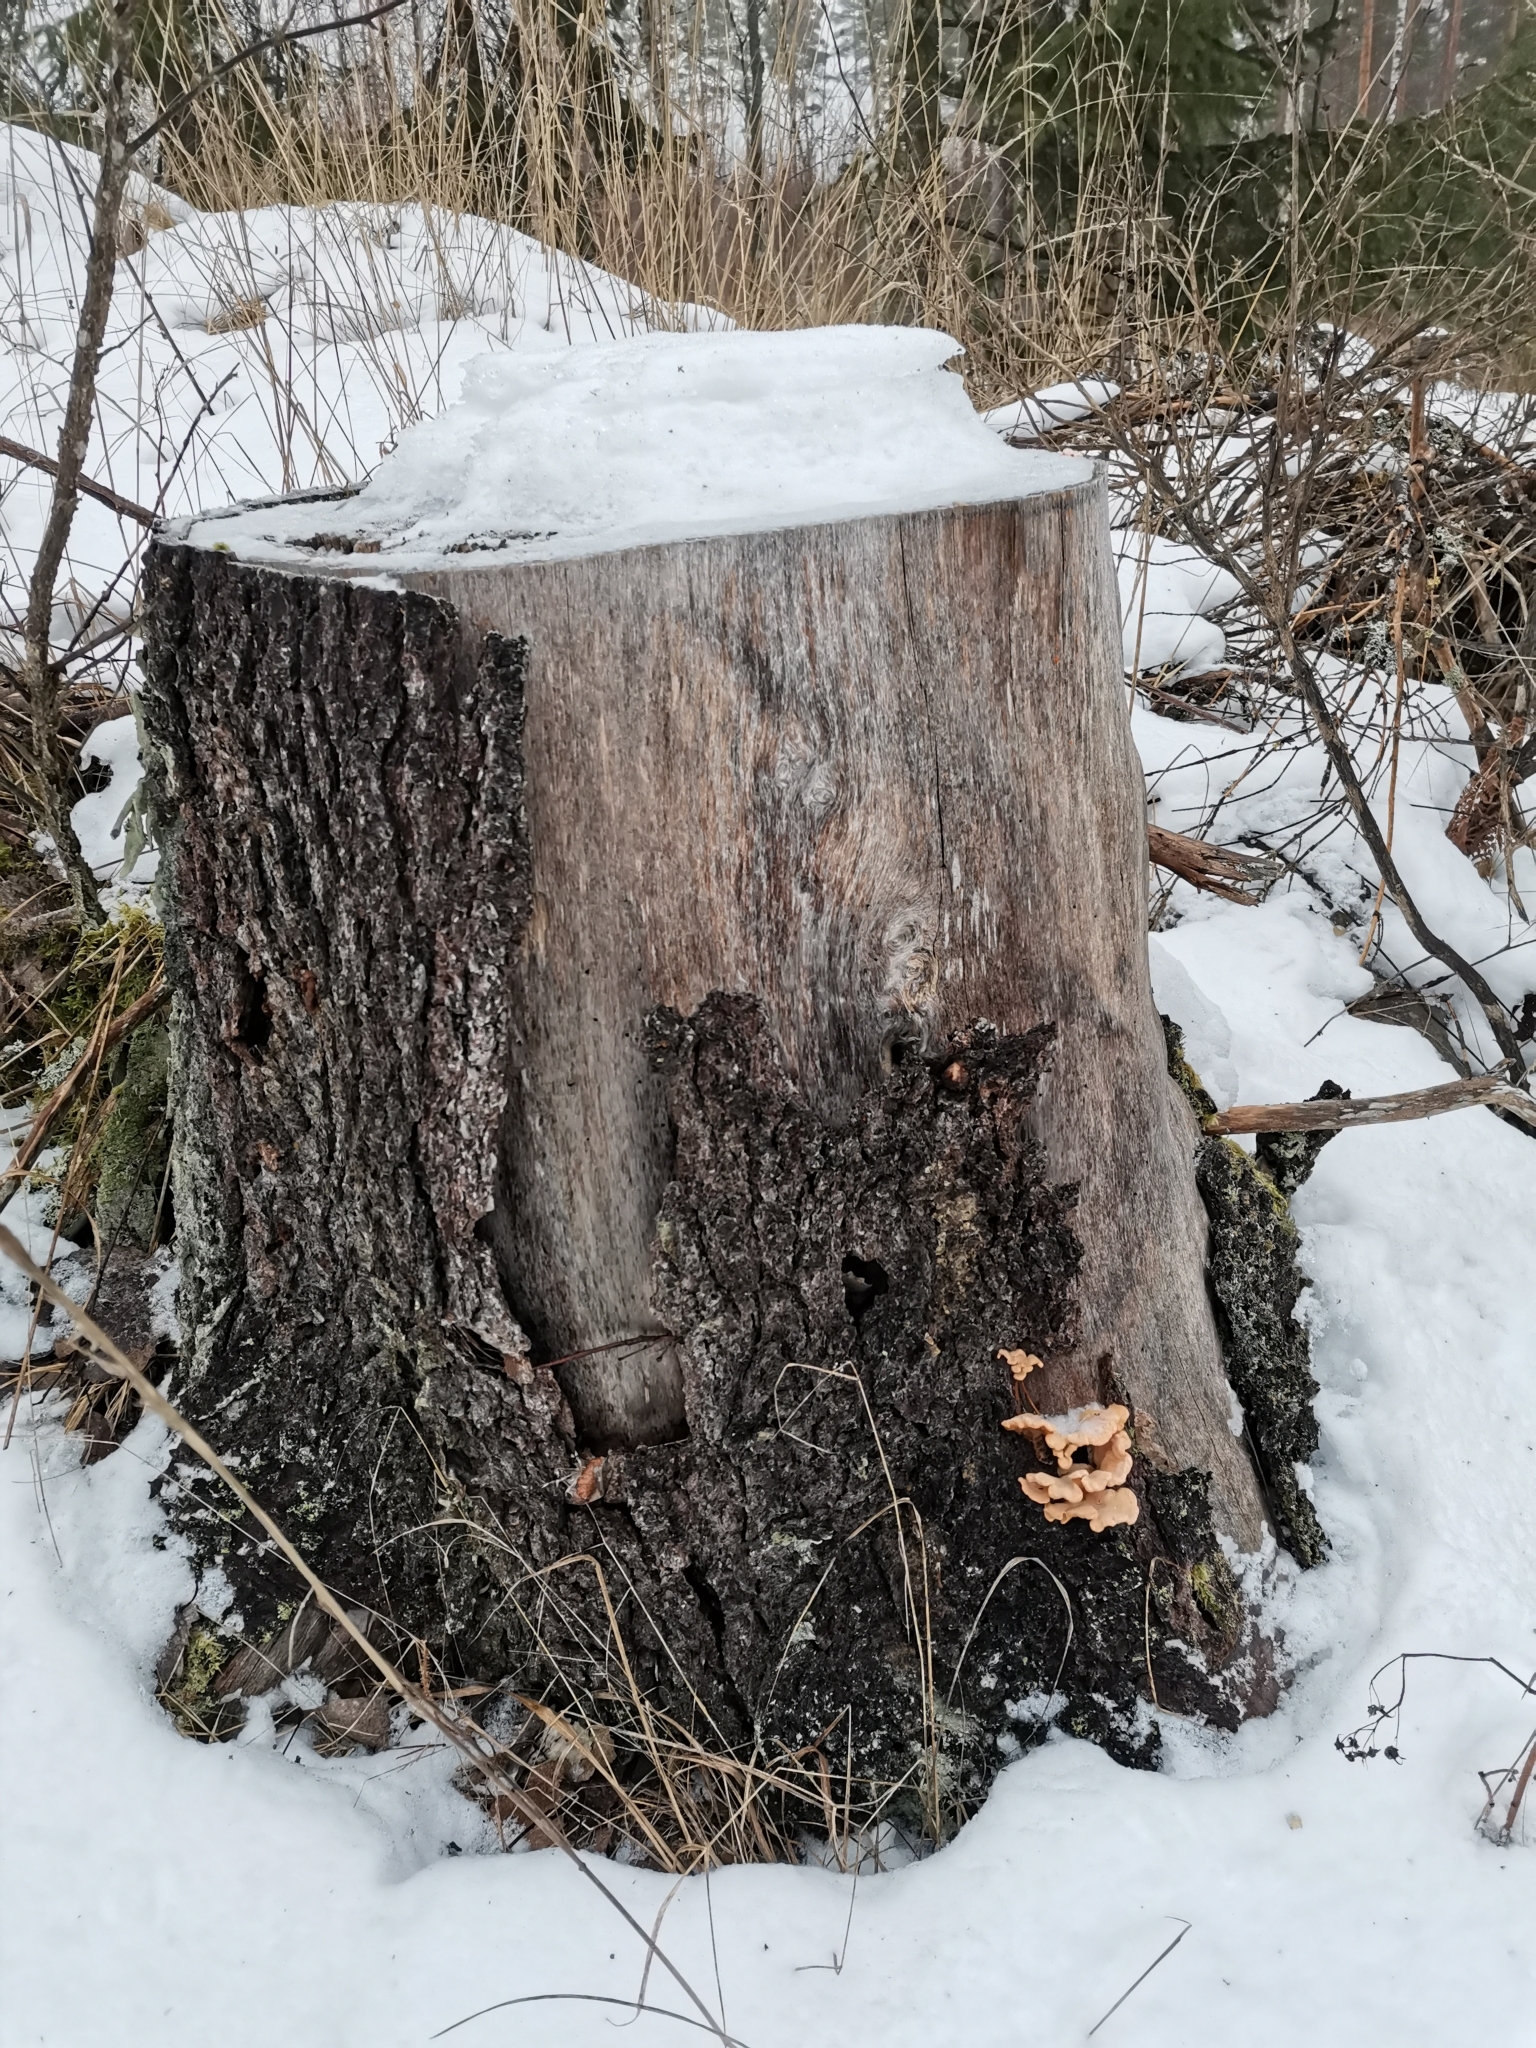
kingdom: Fungi
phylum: Basidiomycota
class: Agaricomycetes
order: Agaricales
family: Phyllotopsidaceae
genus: Phyllotopsis
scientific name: Phyllotopsis nidulans
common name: Orange mock oyster
